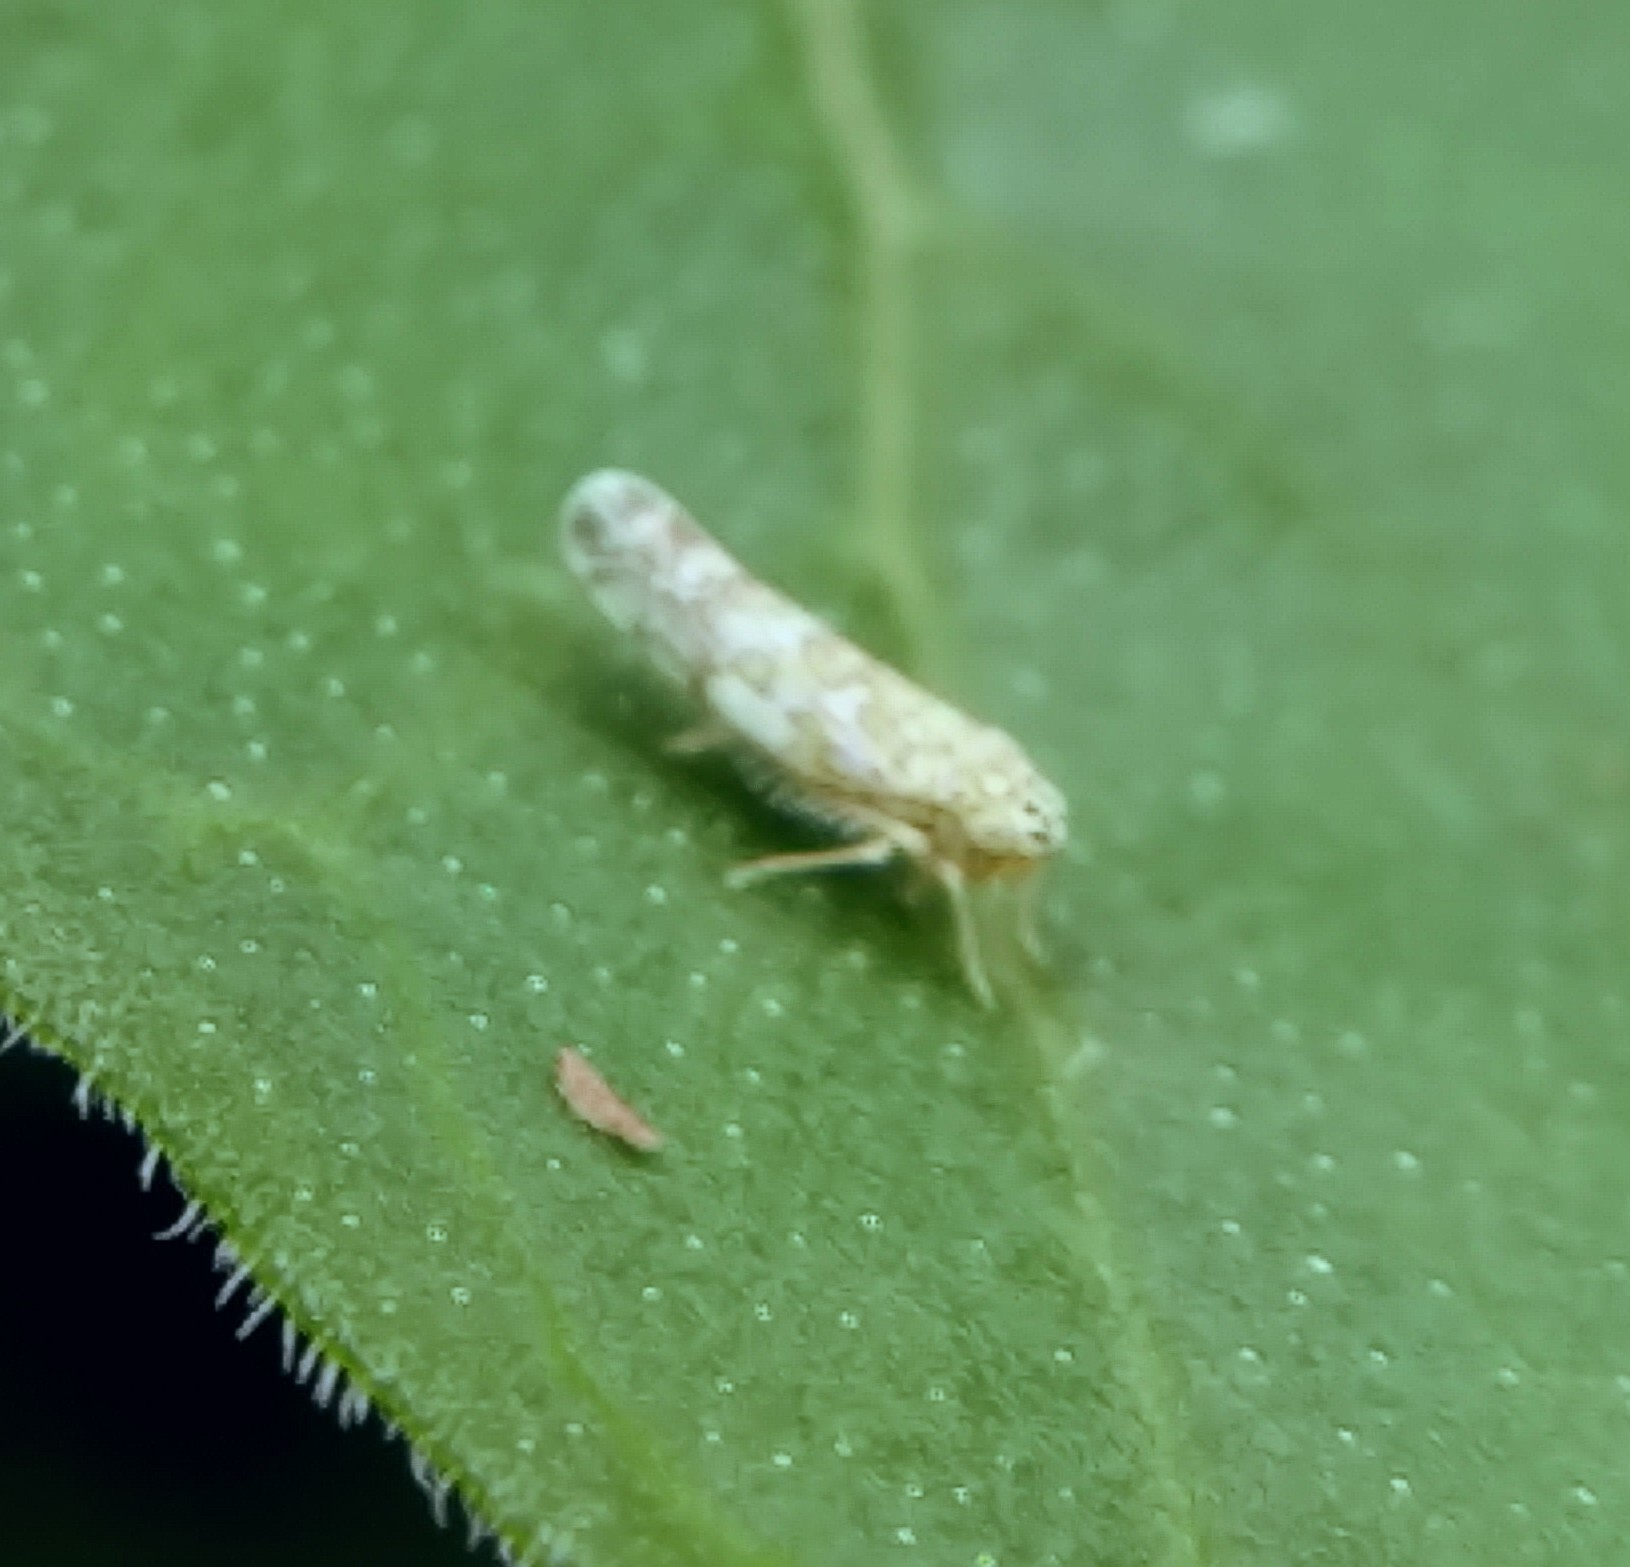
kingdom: Animalia
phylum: Arthropoda
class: Insecta
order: Hemiptera
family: Cicadellidae
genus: Eupteryx
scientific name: Eupteryx decemnotata
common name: Ligurian leafhopper
